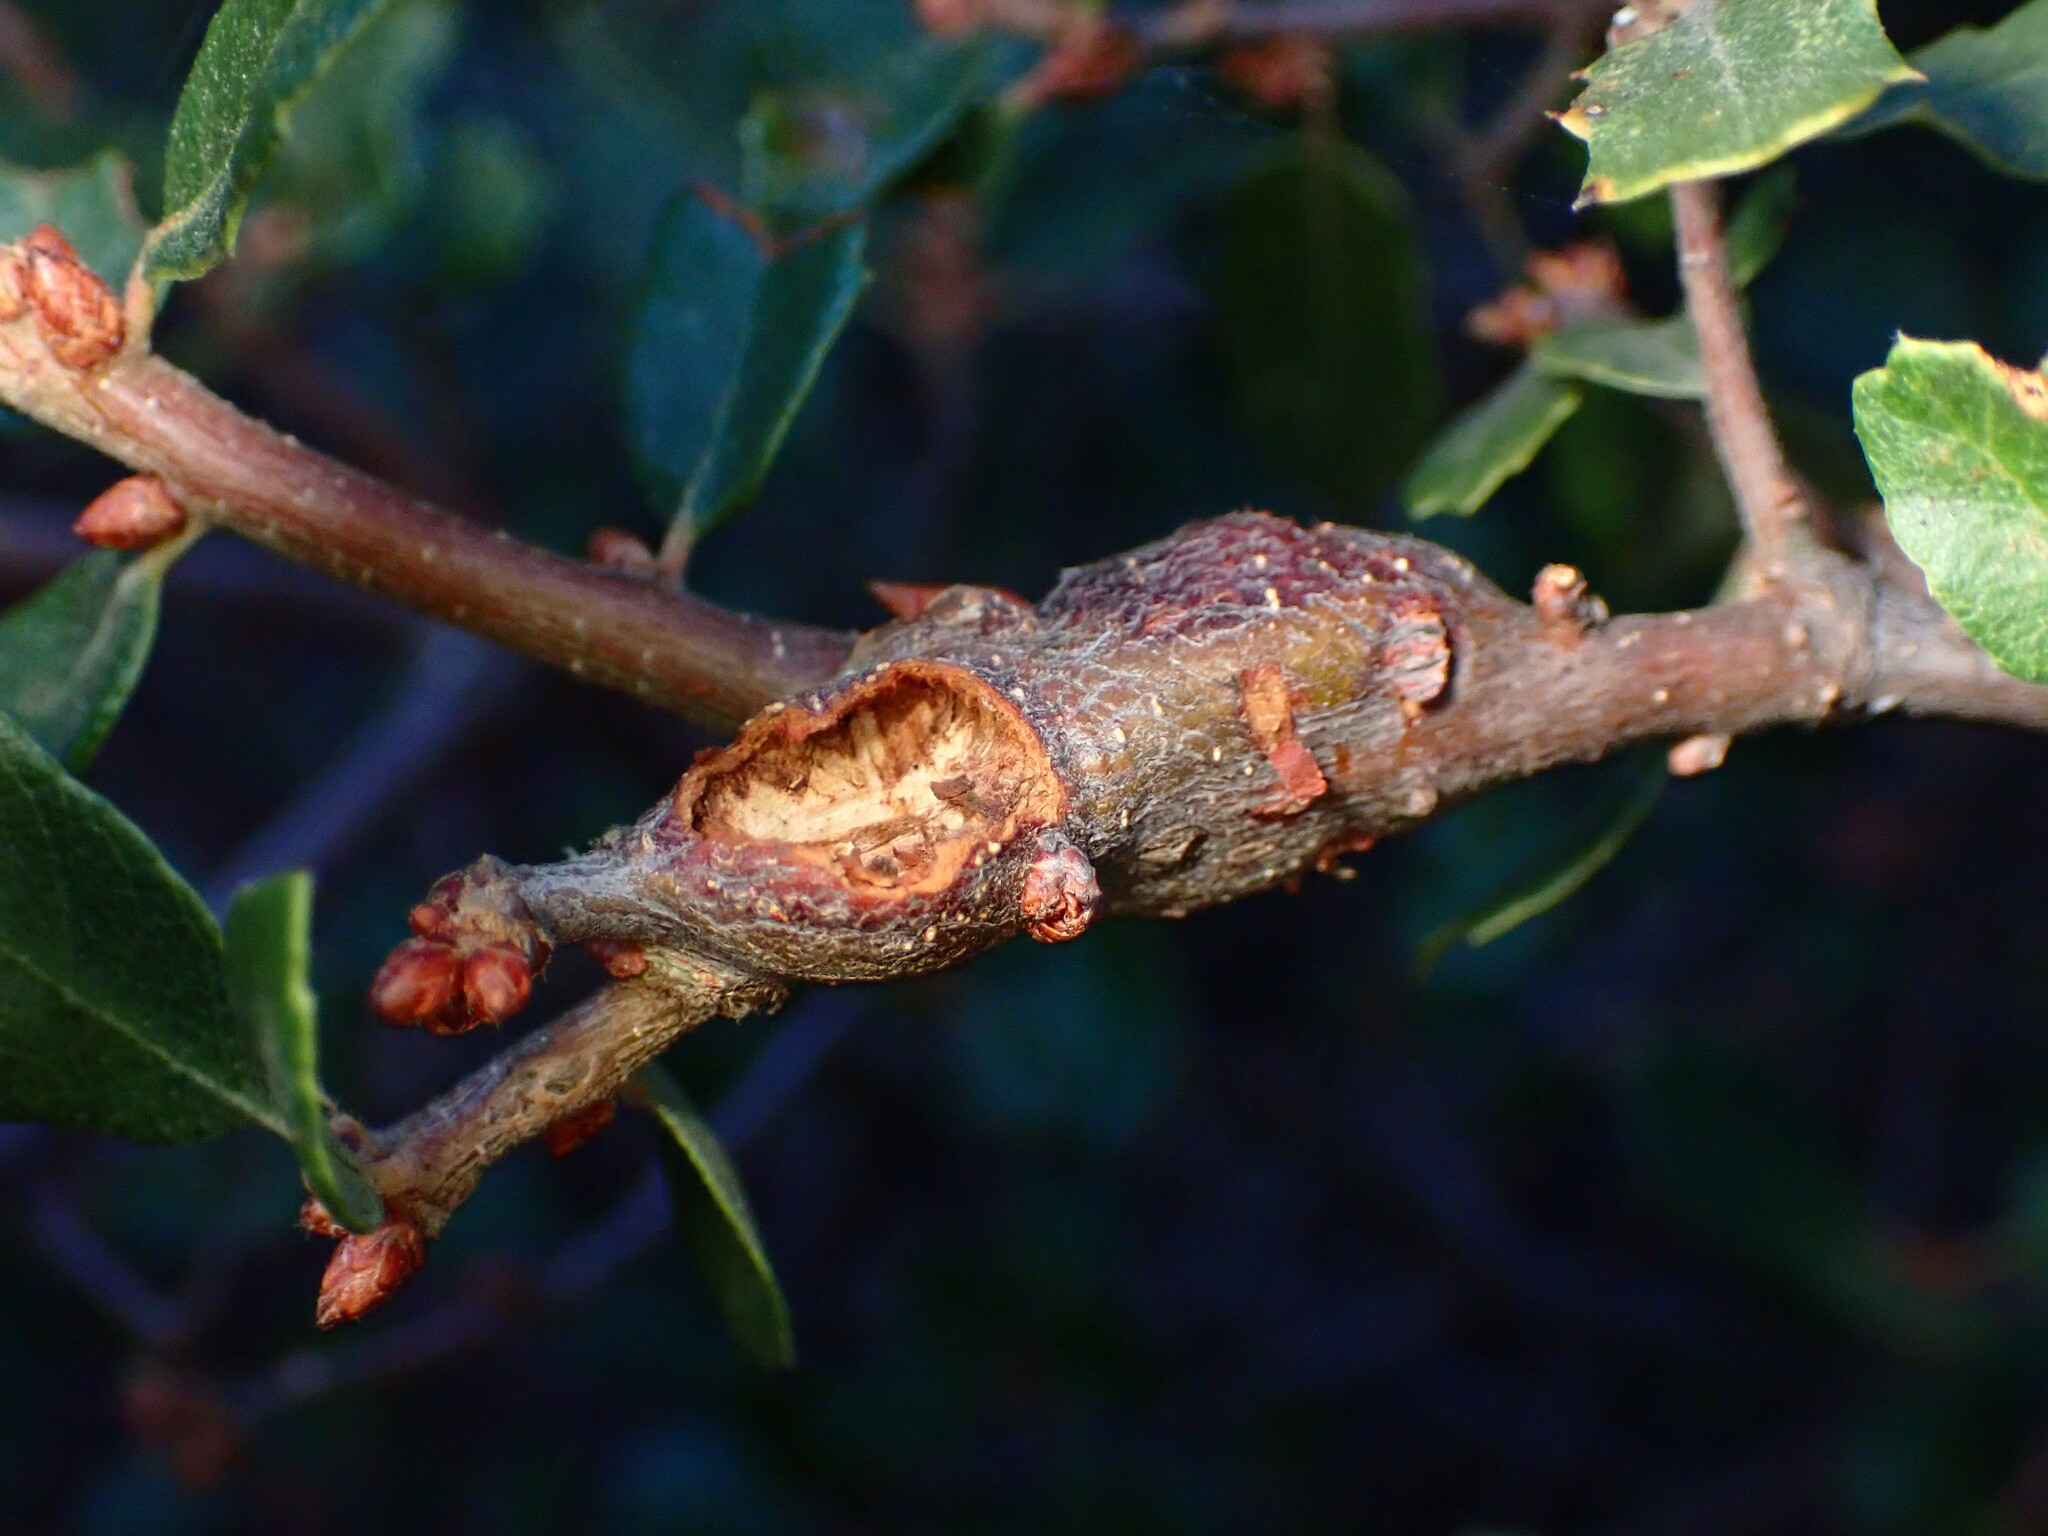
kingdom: Animalia
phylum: Arthropoda
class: Insecta
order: Hymenoptera
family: Cynipidae
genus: Callirhytis
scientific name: Callirhytis
